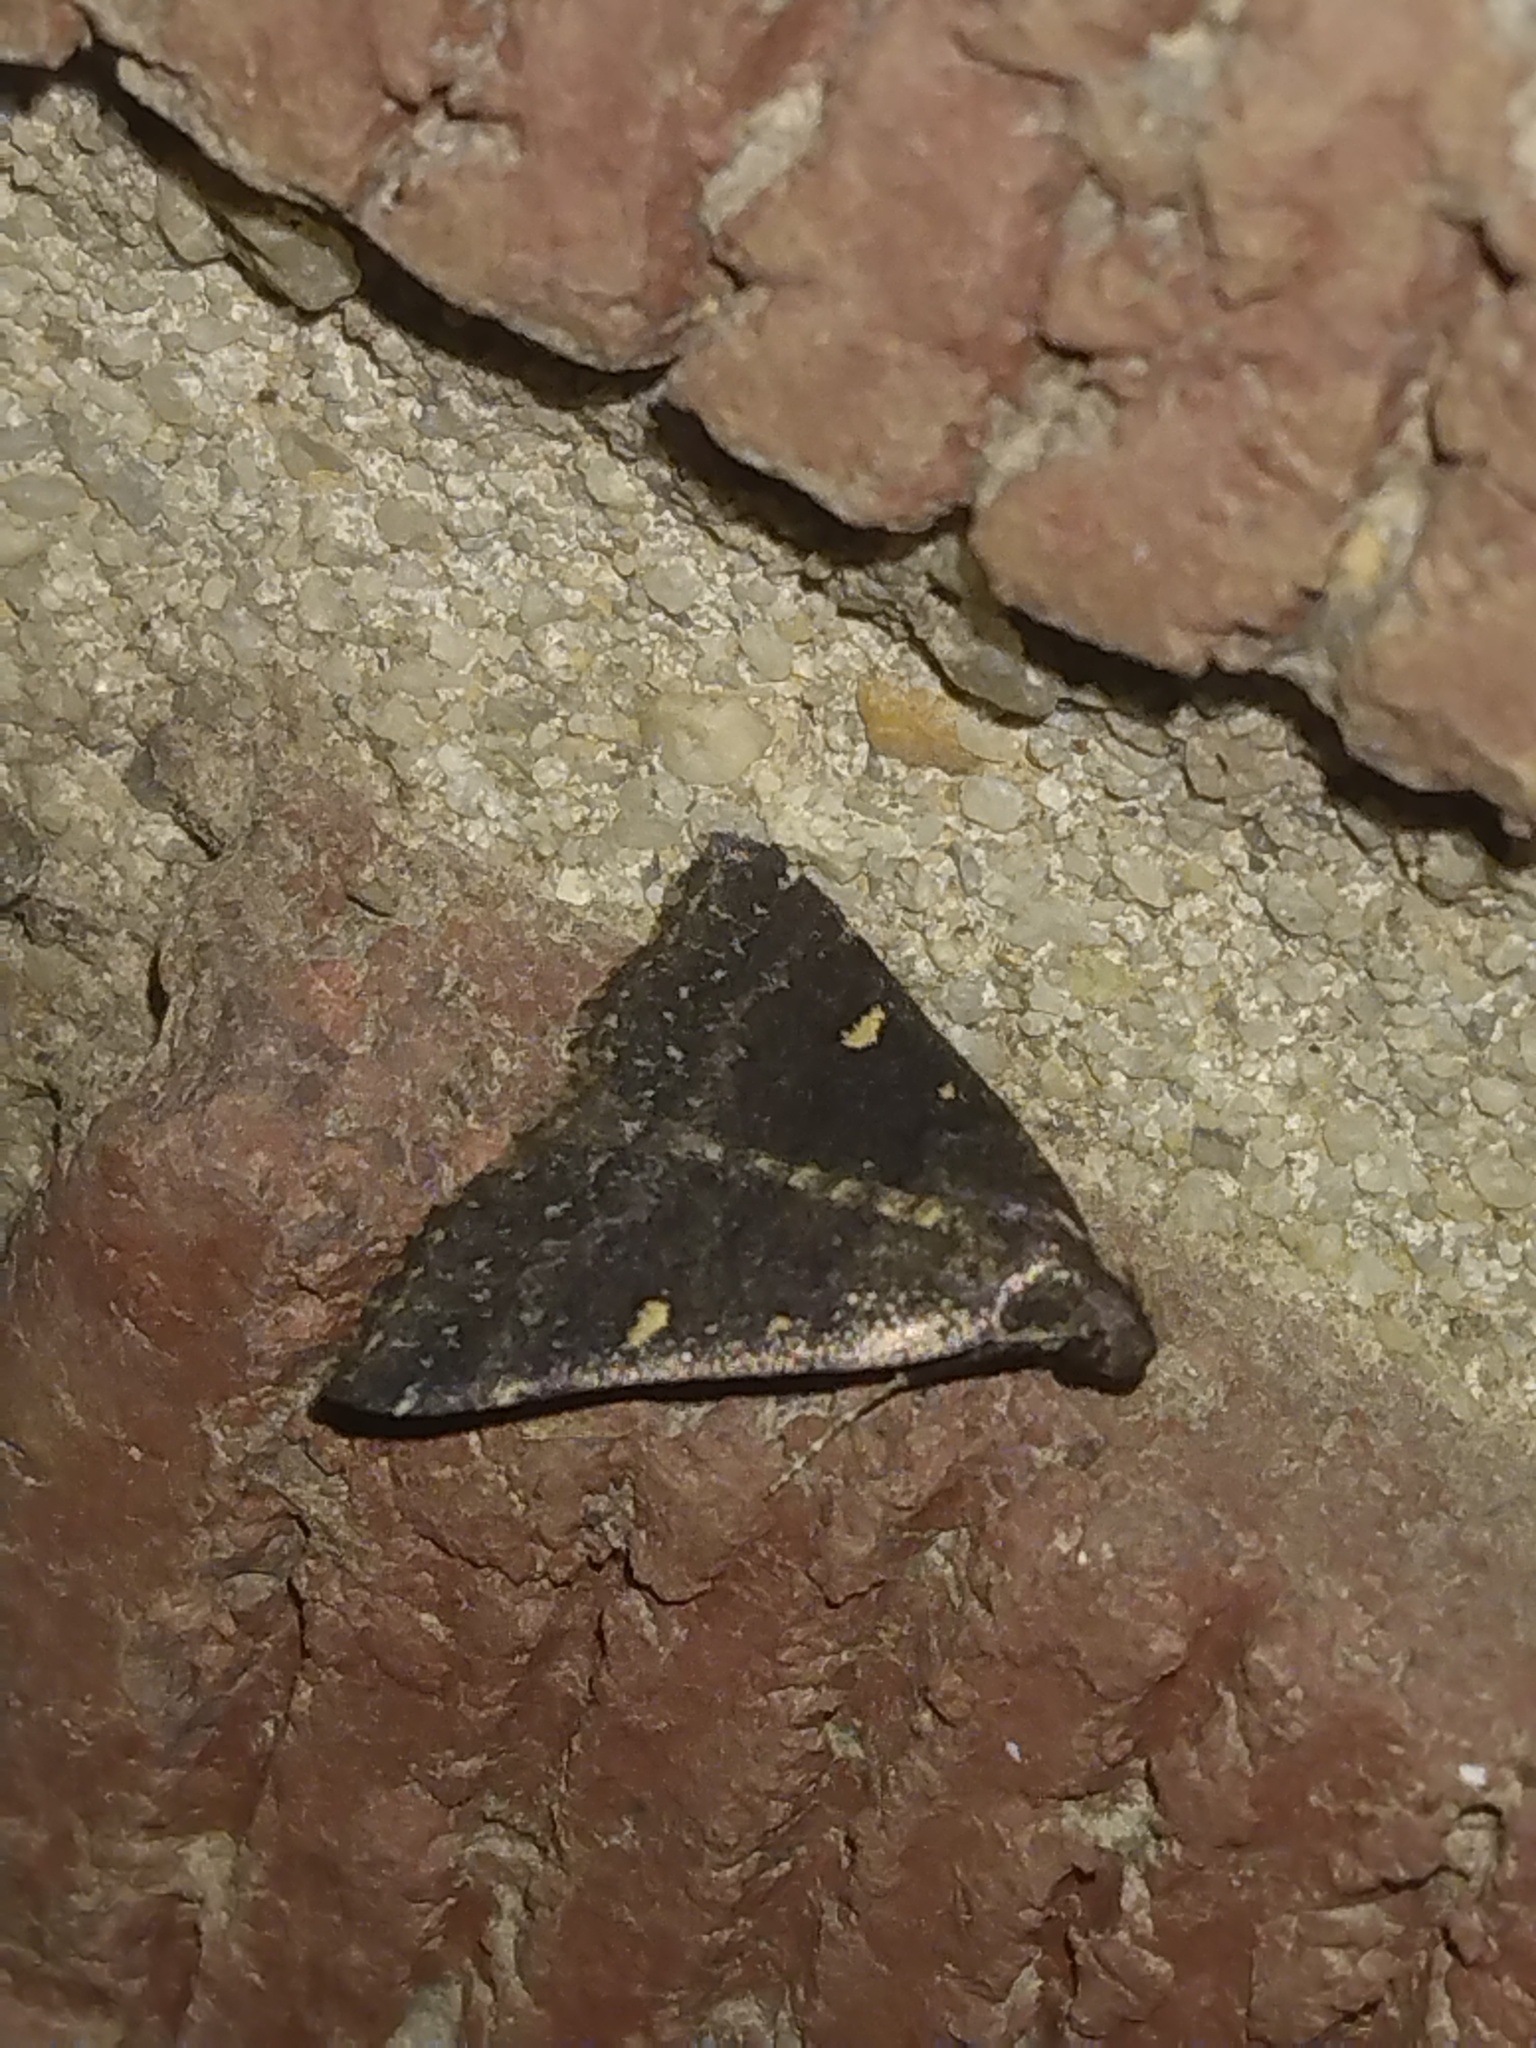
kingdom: Animalia
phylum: Arthropoda
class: Insecta
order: Lepidoptera
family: Erebidae
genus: Tetanolita
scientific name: Tetanolita mynesalis
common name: Smoky tetanolita moth
